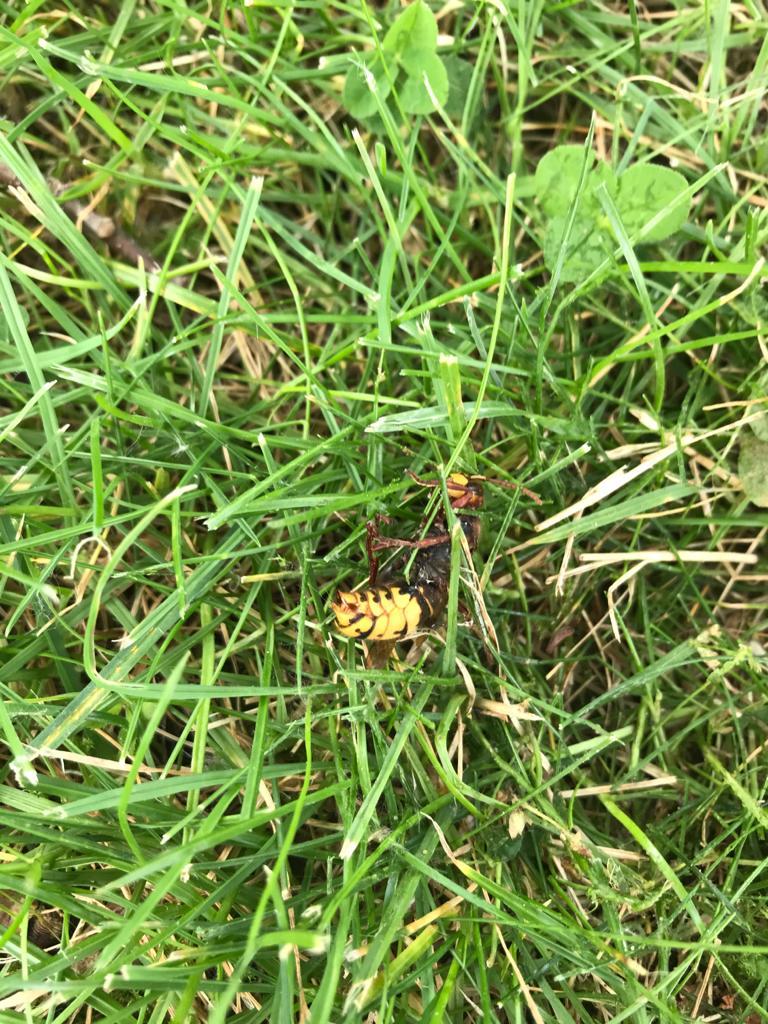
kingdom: Animalia
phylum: Arthropoda
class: Insecta
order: Hymenoptera
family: Vespidae
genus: Vespa
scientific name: Vespa crabro
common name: Hornet
